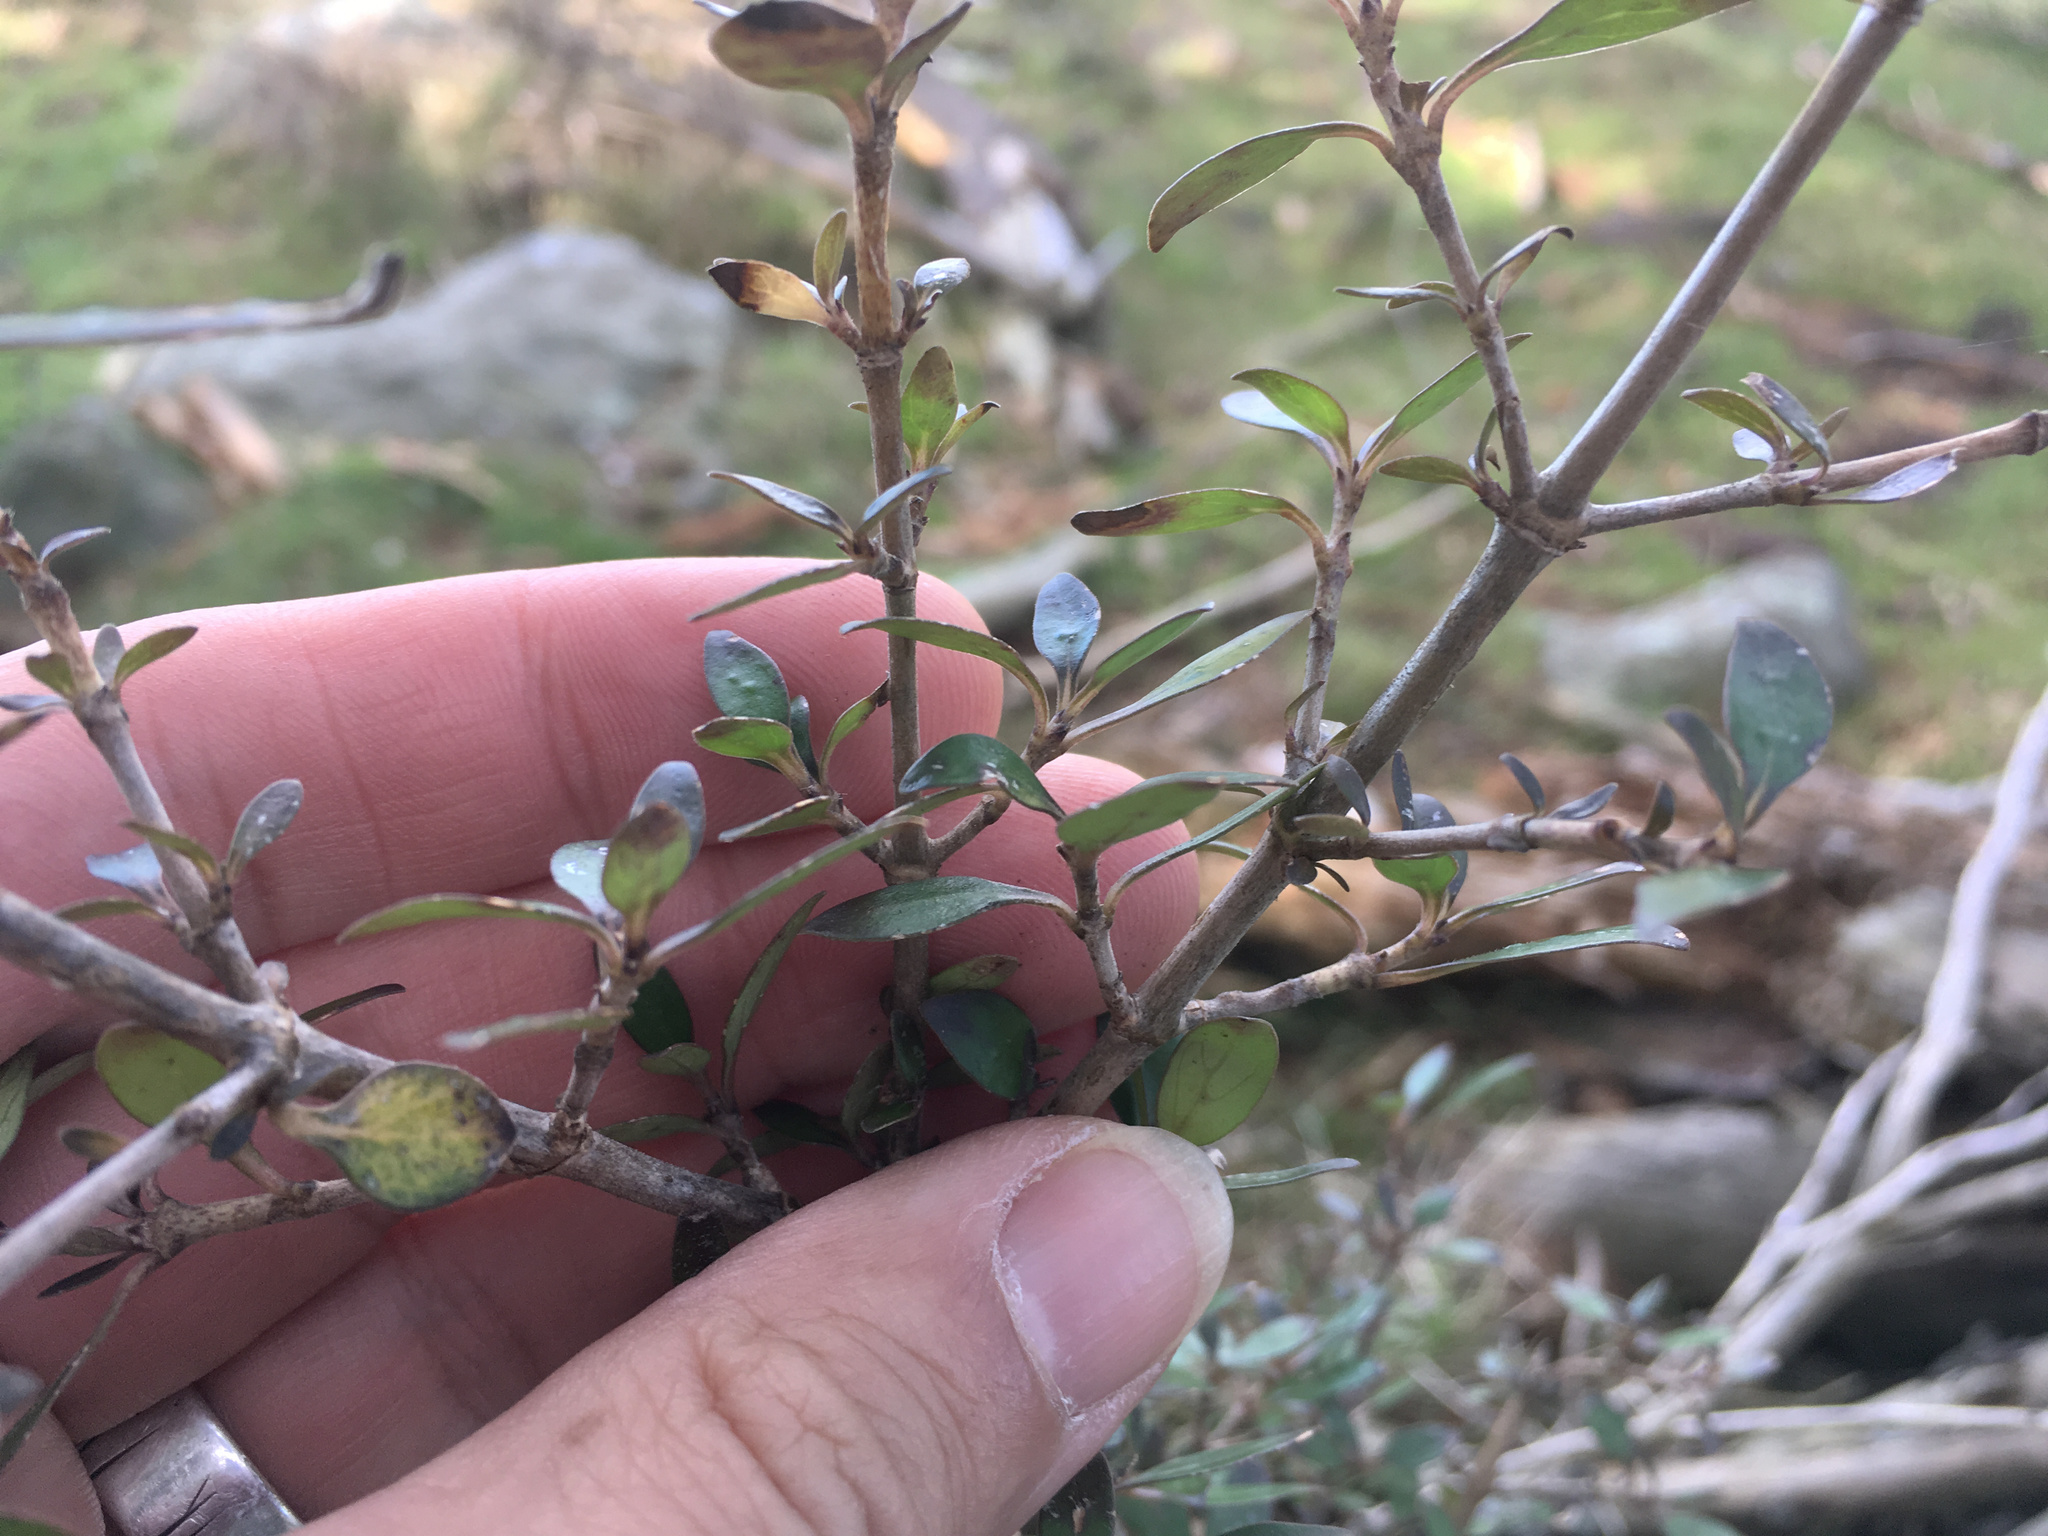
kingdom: Plantae
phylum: Tracheophyta
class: Magnoliopsida
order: Gentianales
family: Rubiaceae
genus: Coprosma
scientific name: Coprosma cunninghamii
